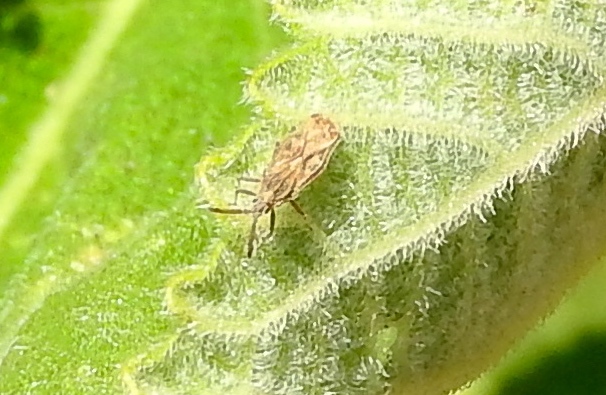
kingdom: Animalia
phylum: Arthropoda
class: Insecta
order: Hemiptera
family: Tingidae
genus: Teleonemia
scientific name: Teleonemia
